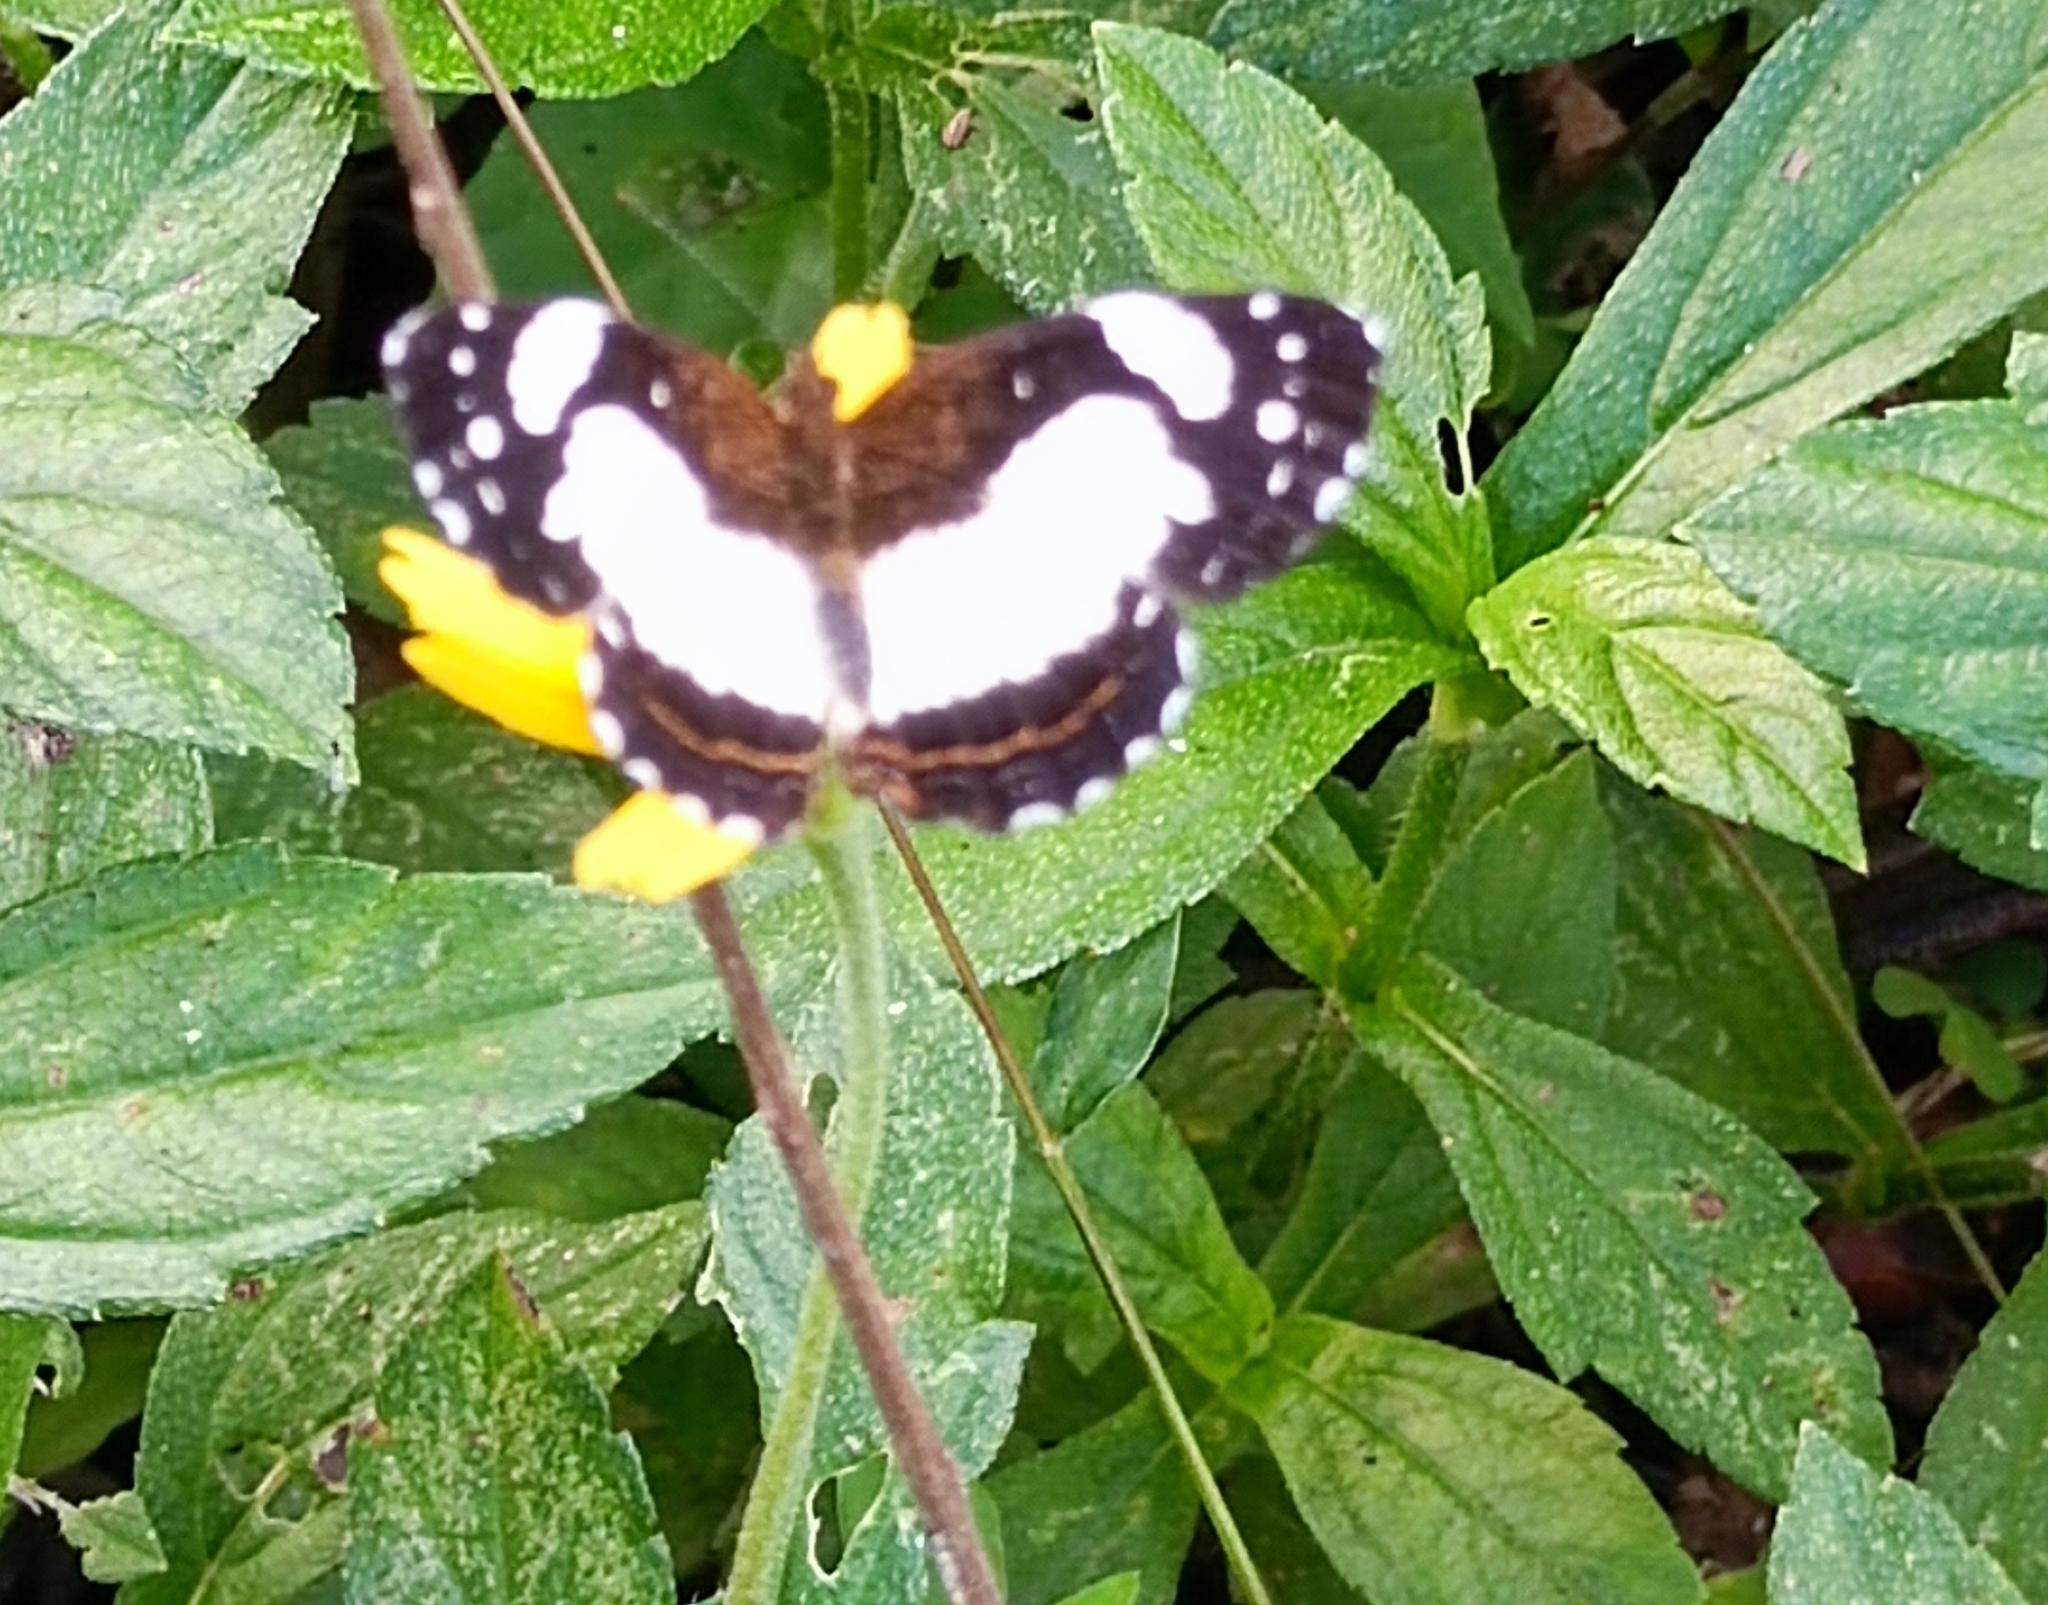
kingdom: Animalia
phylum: Arthropoda
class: Insecta
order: Lepidoptera
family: Nymphalidae
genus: Janatella
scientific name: Janatella leucodesma
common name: Whitened crescent
